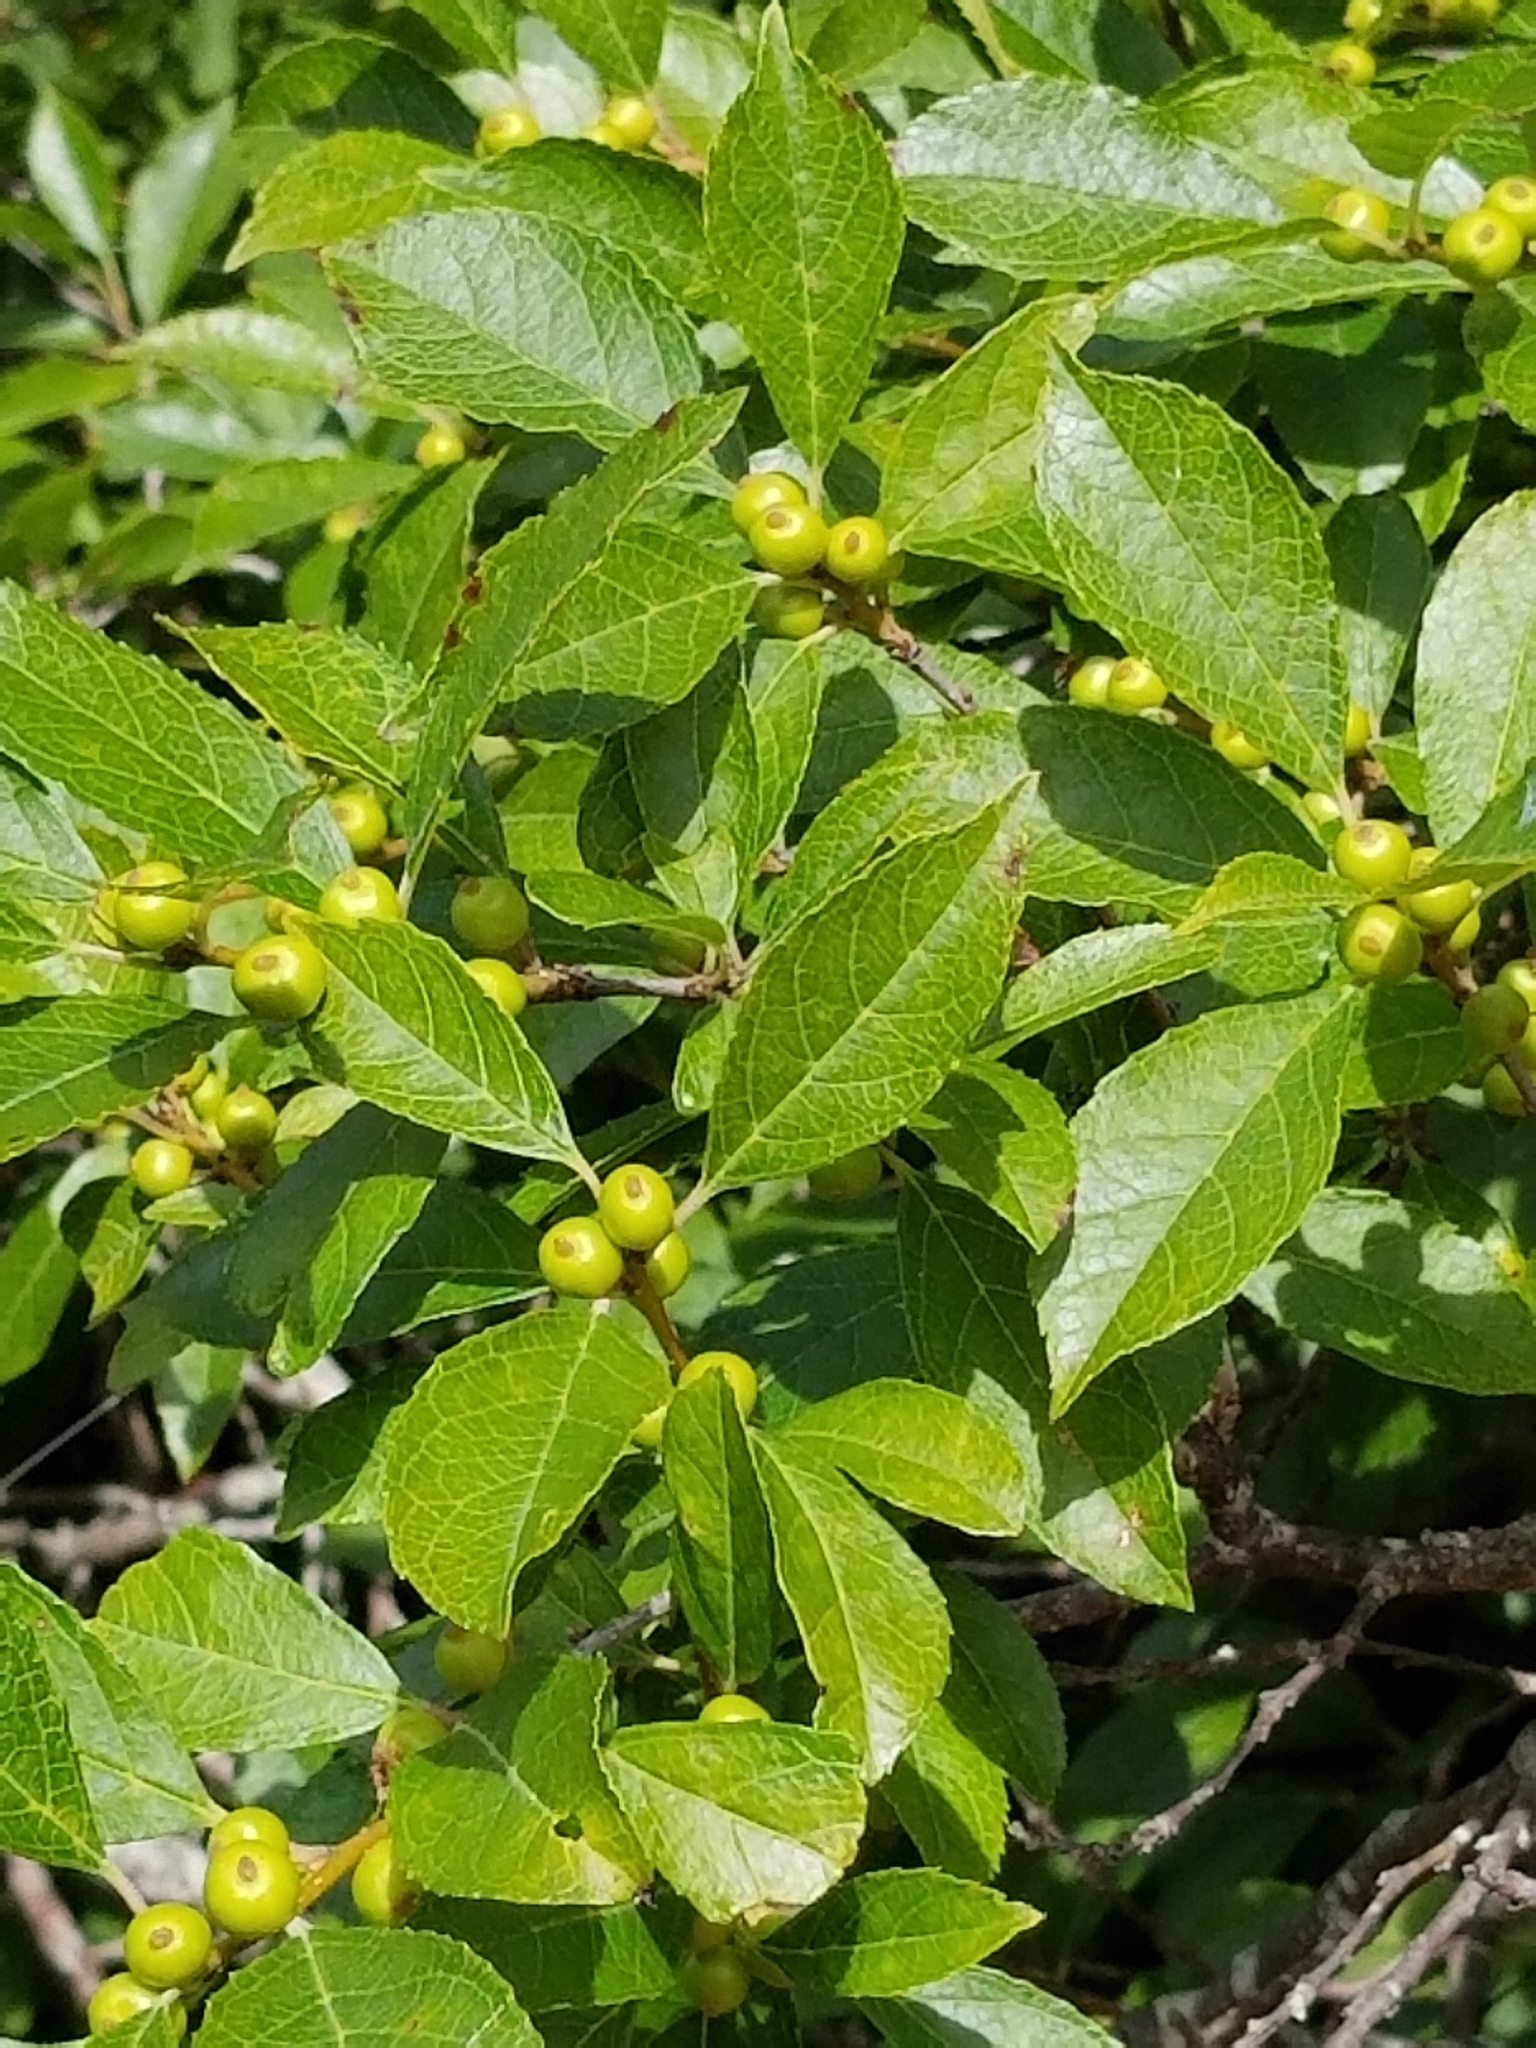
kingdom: Plantae
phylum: Tracheophyta
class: Magnoliopsida
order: Aquifoliales
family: Aquifoliaceae
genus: Ilex
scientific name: Ilex verticillata
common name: Virginia winterberry
